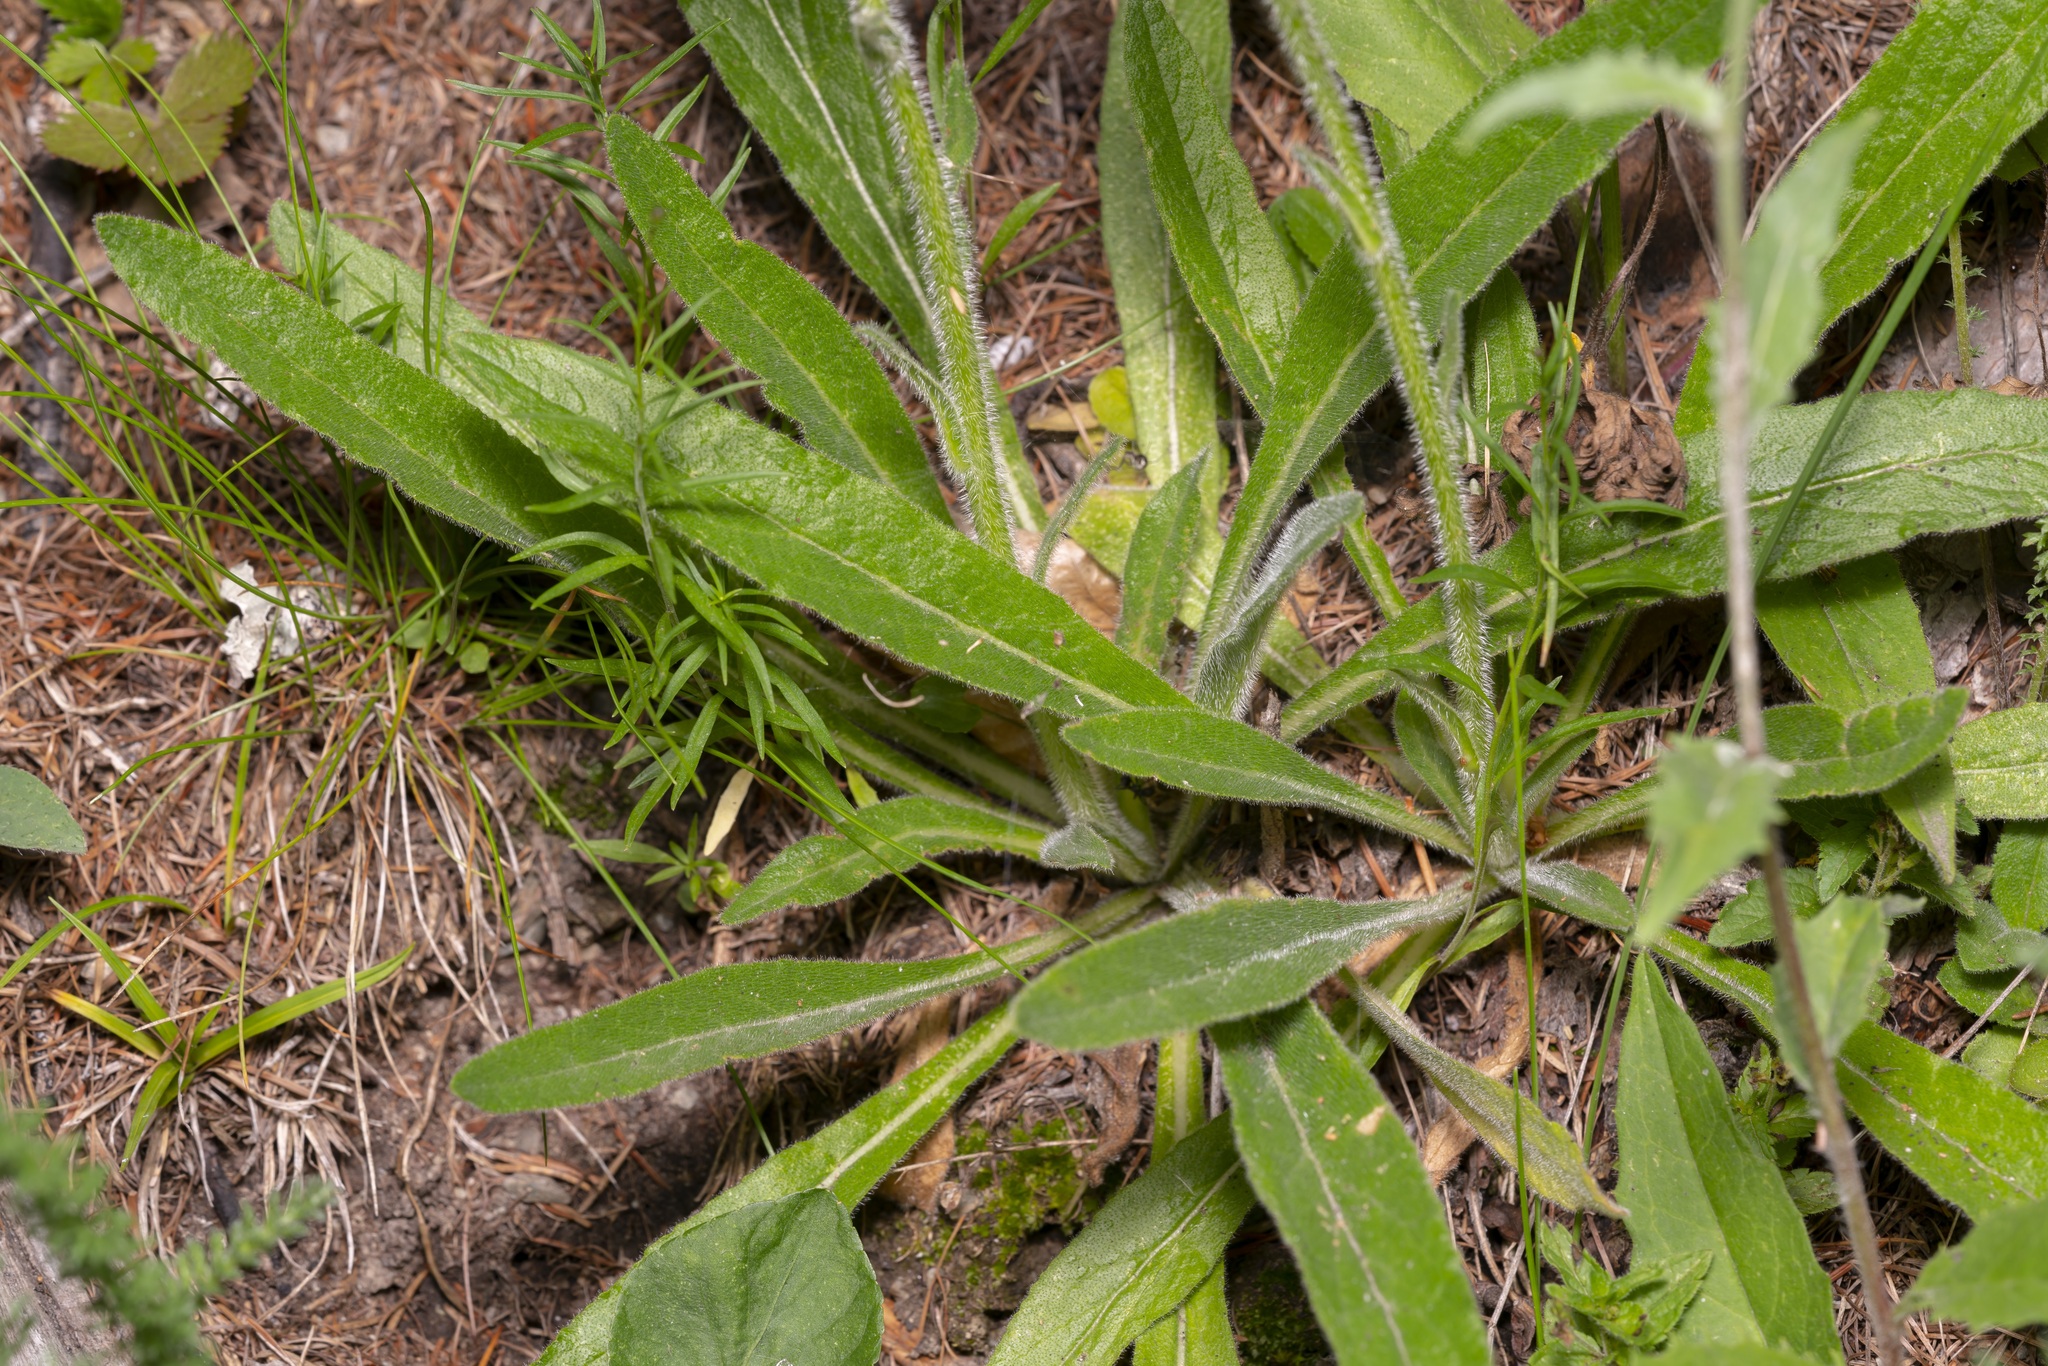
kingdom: Plantae
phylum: Tracheophyta
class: Magnoliopsida
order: Asterales
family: Campanulaceae
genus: Campanula
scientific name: Campanula barbata
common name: Bearded bellflower
